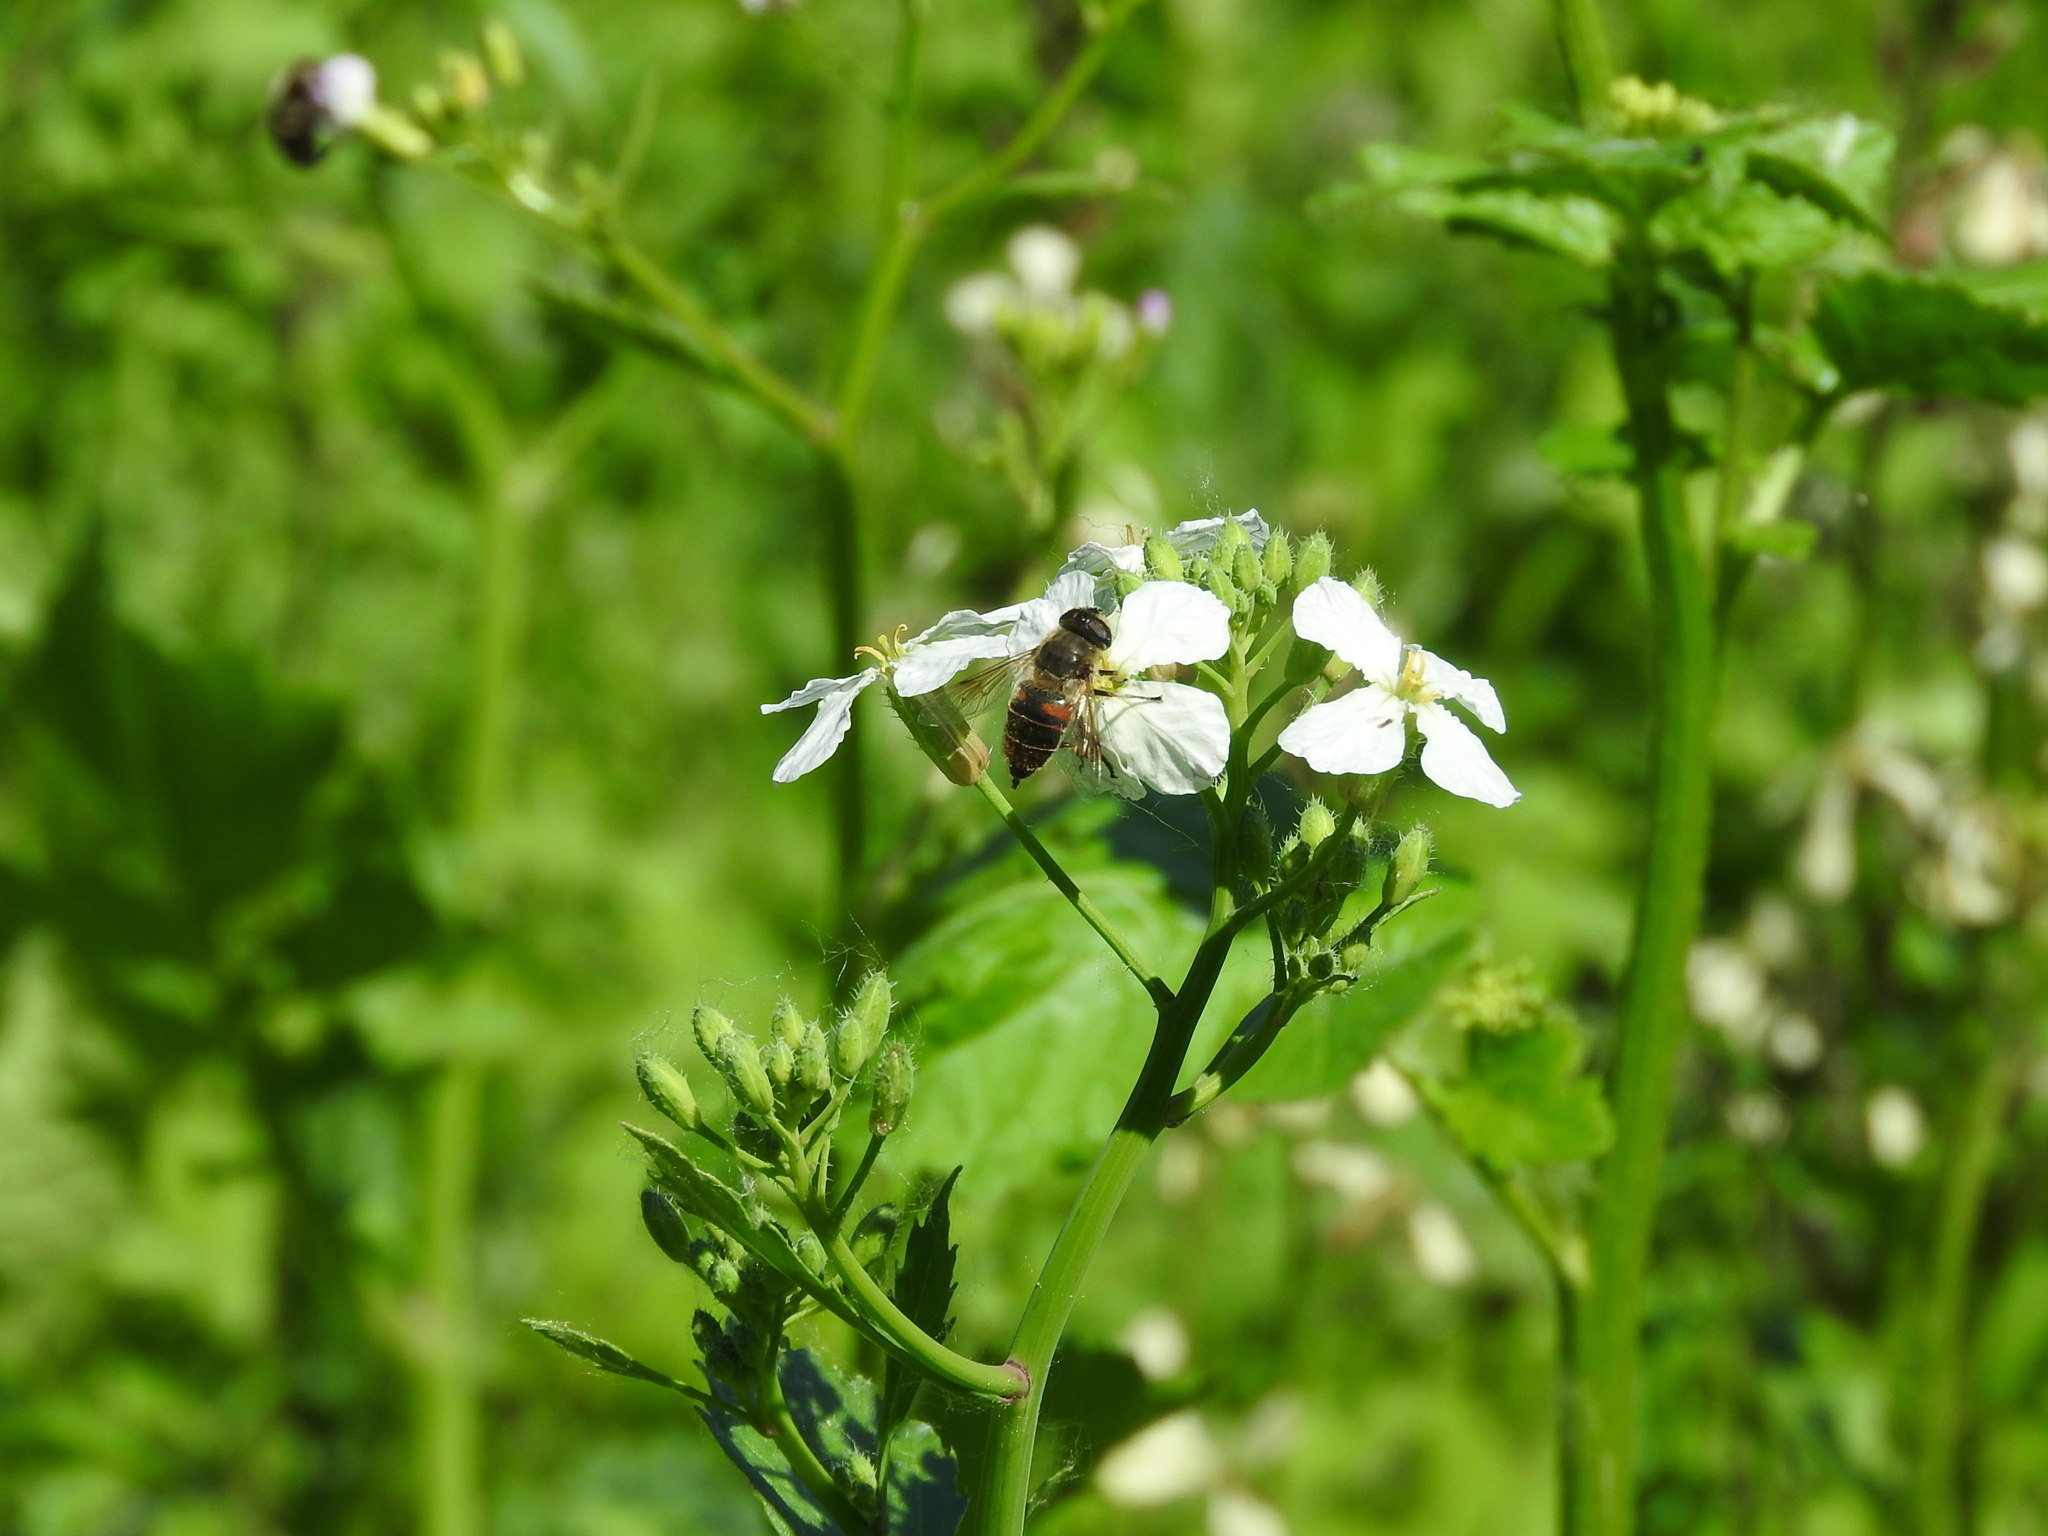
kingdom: Animalia
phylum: Arthropoda
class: Insecta
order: Diptera
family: Syrphidae
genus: Eristalis
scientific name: Eristalis tenax
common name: Drone fly
